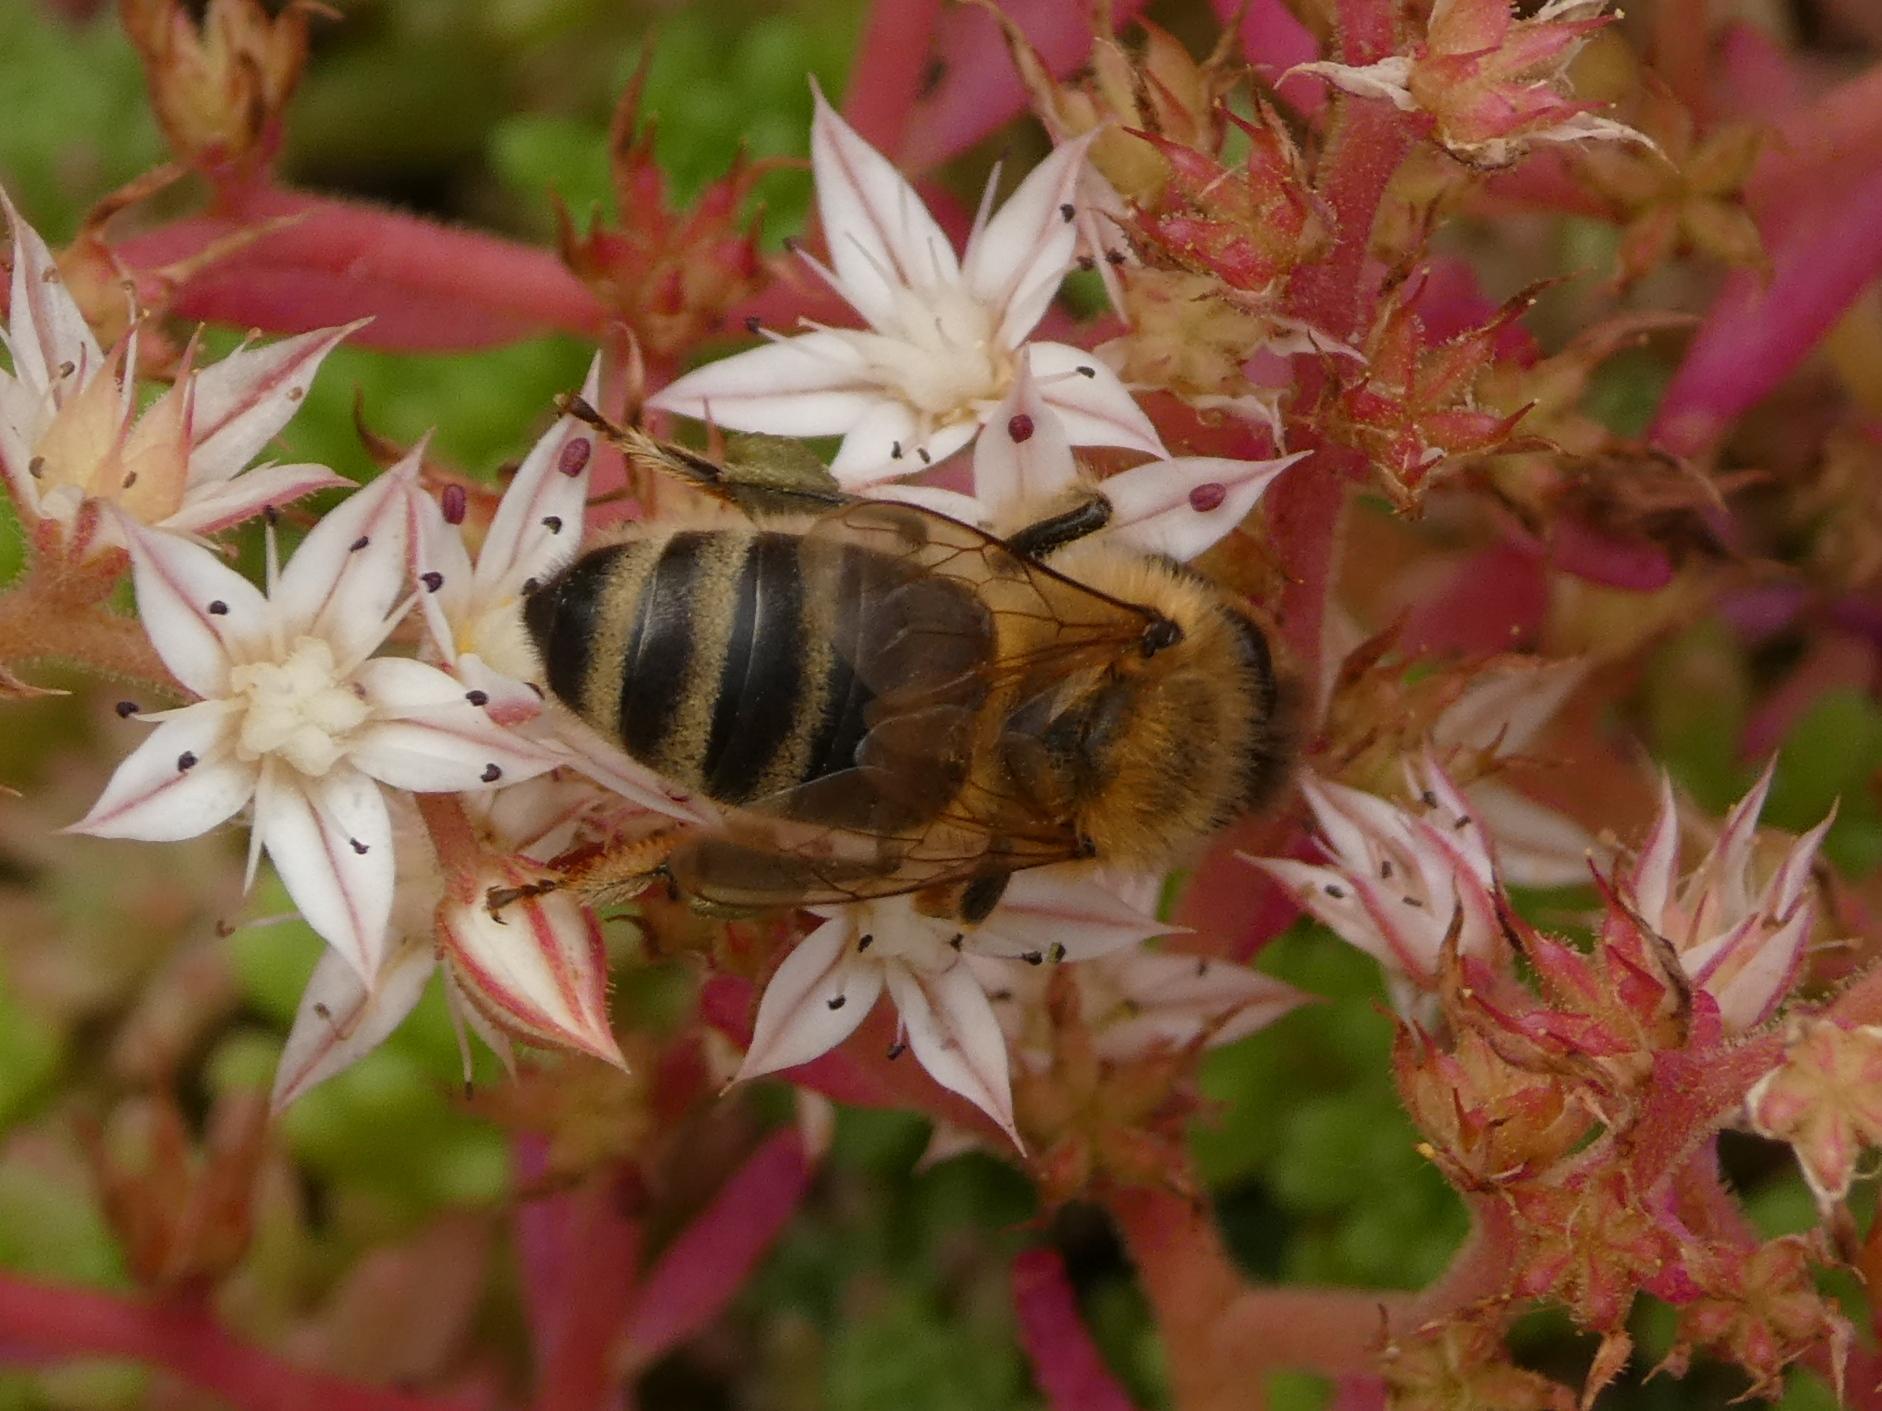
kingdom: Animalia
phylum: Arthropoda
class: Insecta
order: Hymenoptera
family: Apidae
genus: Apis
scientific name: Apis mellifera
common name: Honey bee
